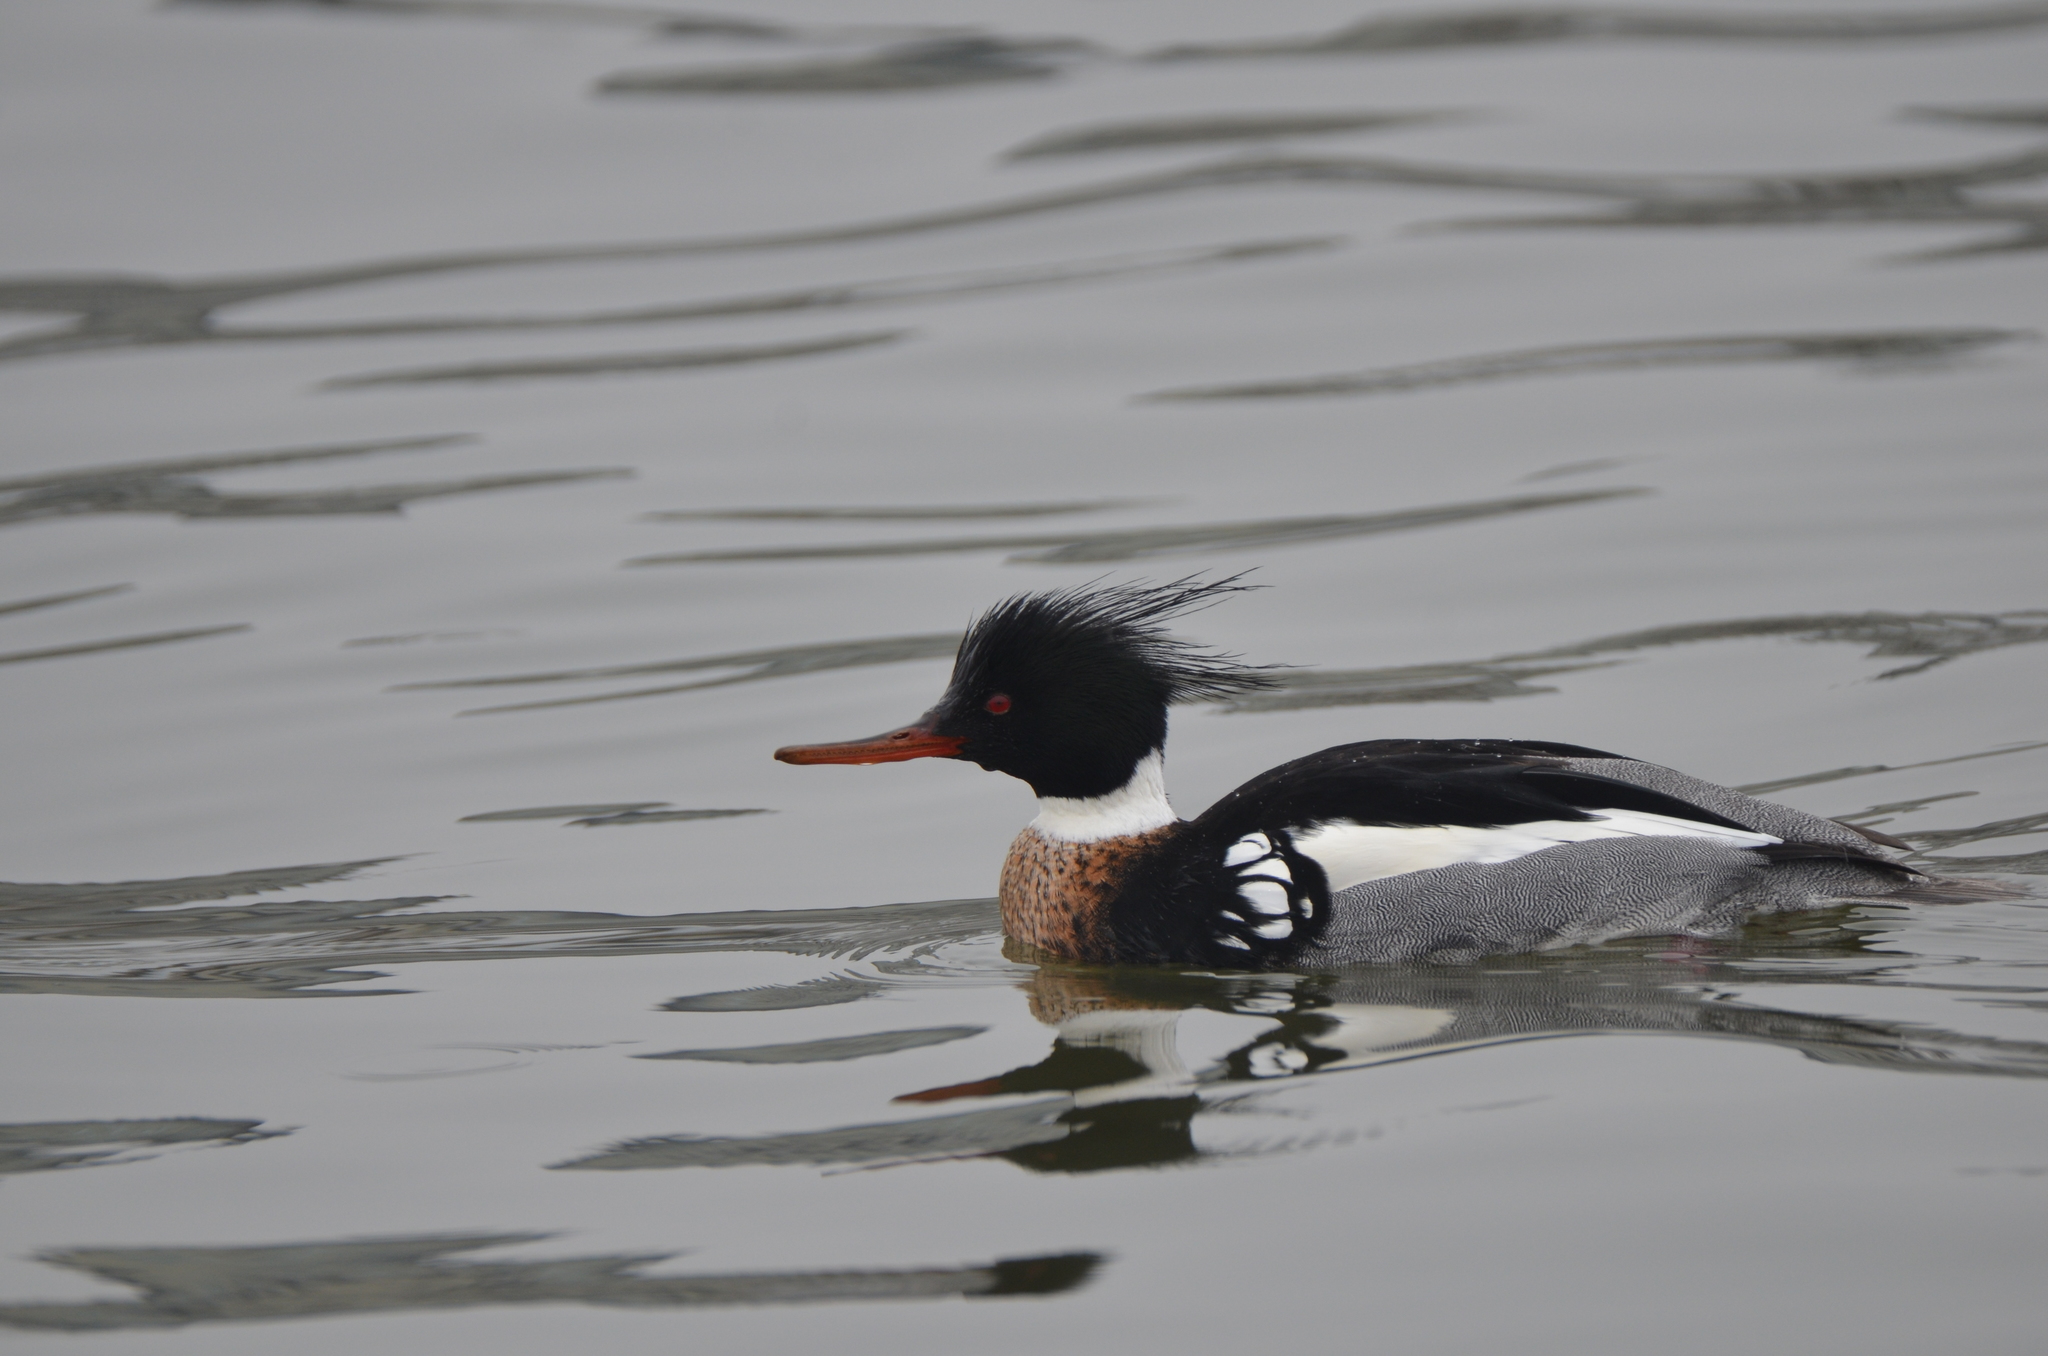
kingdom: Animalia
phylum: Chordata
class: Aves
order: Anseriformes
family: Anatidae
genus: Mergus
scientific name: Mergus serrator
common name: Red-breasted merganser
